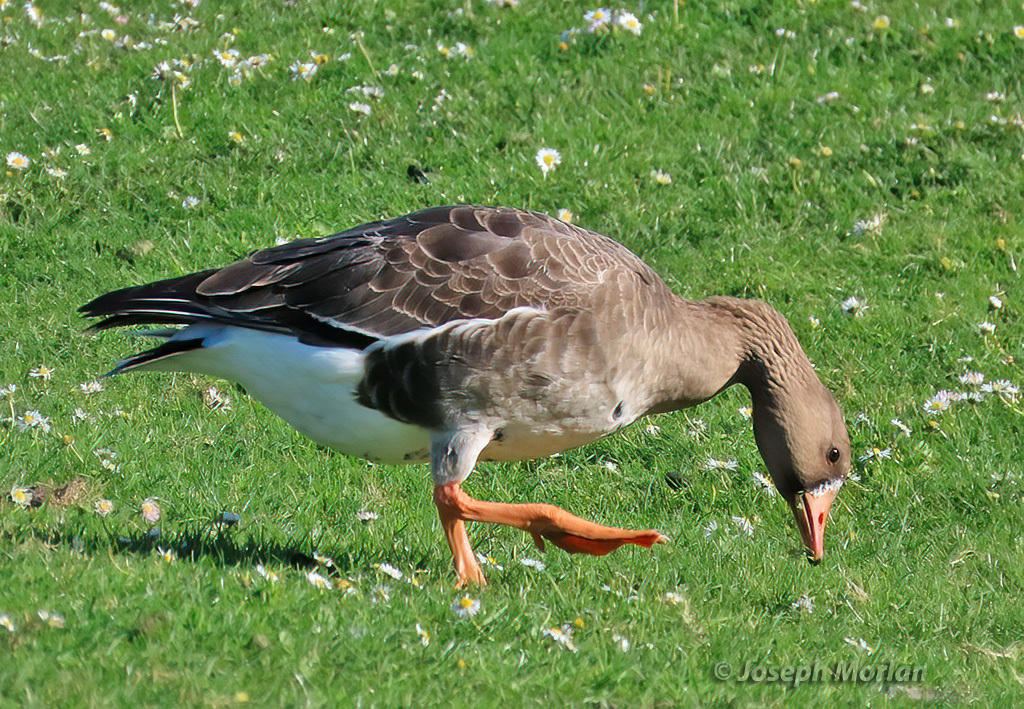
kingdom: Animalia
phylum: Chordata
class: Aves
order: Anseriformes
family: Anatidae
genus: Anser
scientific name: Anser albifrons
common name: Greater white-fronted goose
